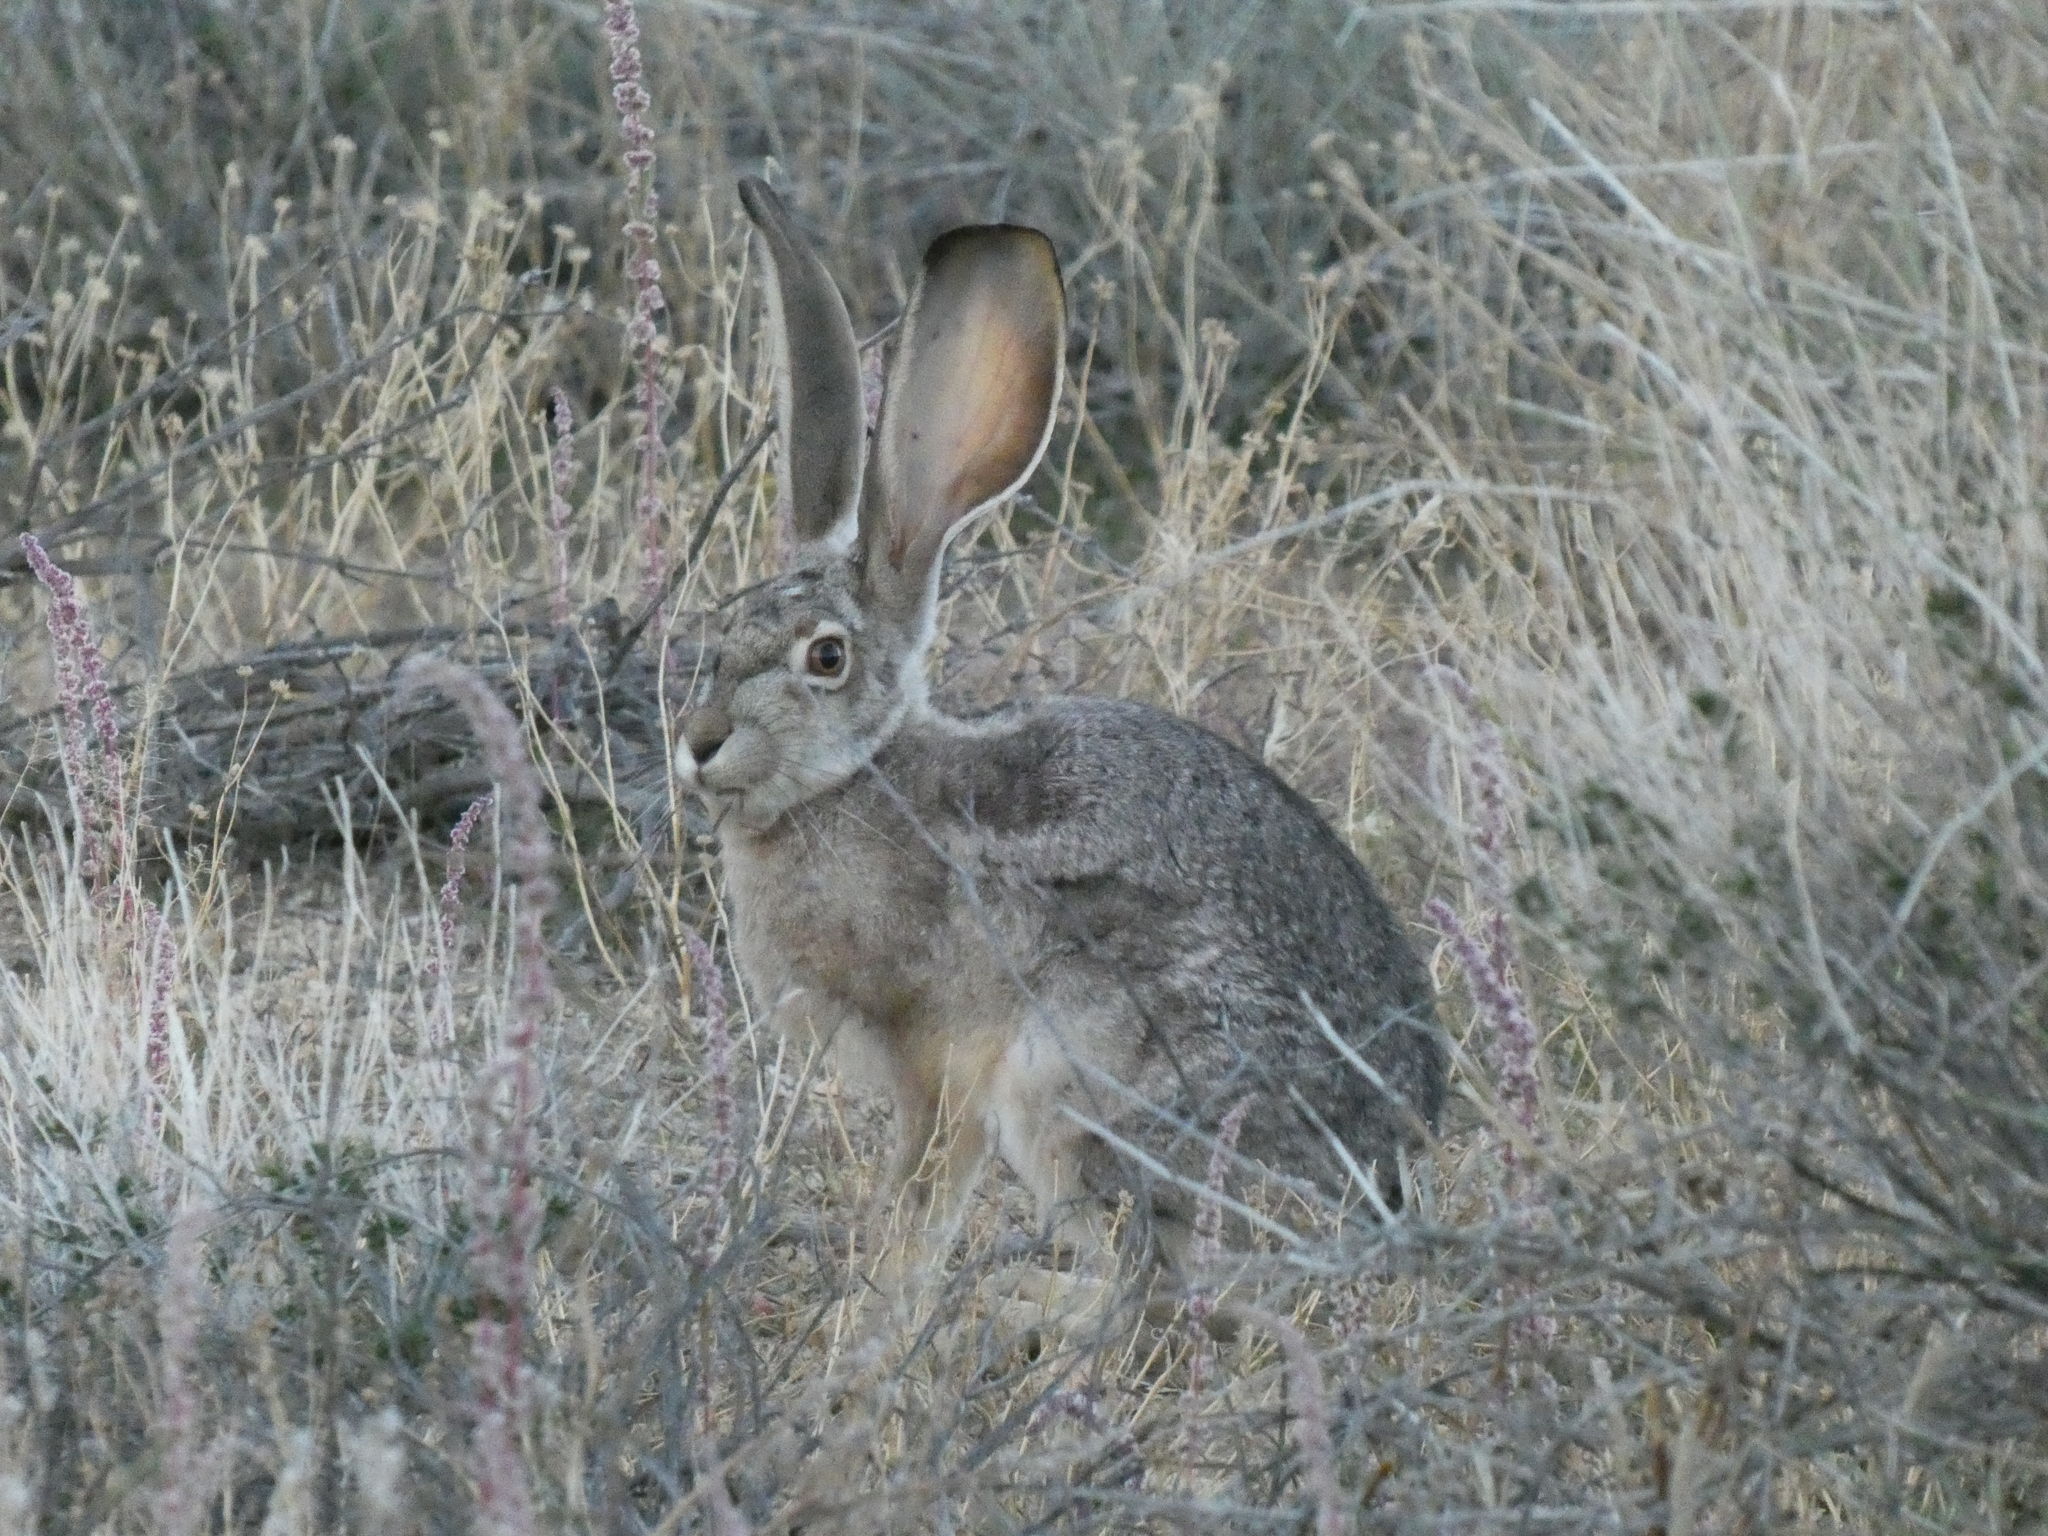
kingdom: Animalia
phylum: Chordata
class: Mammalia
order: Lagomorpha
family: Leporidae
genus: Lepus
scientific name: Lepus californicus
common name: Black-tailed jackrabbit
